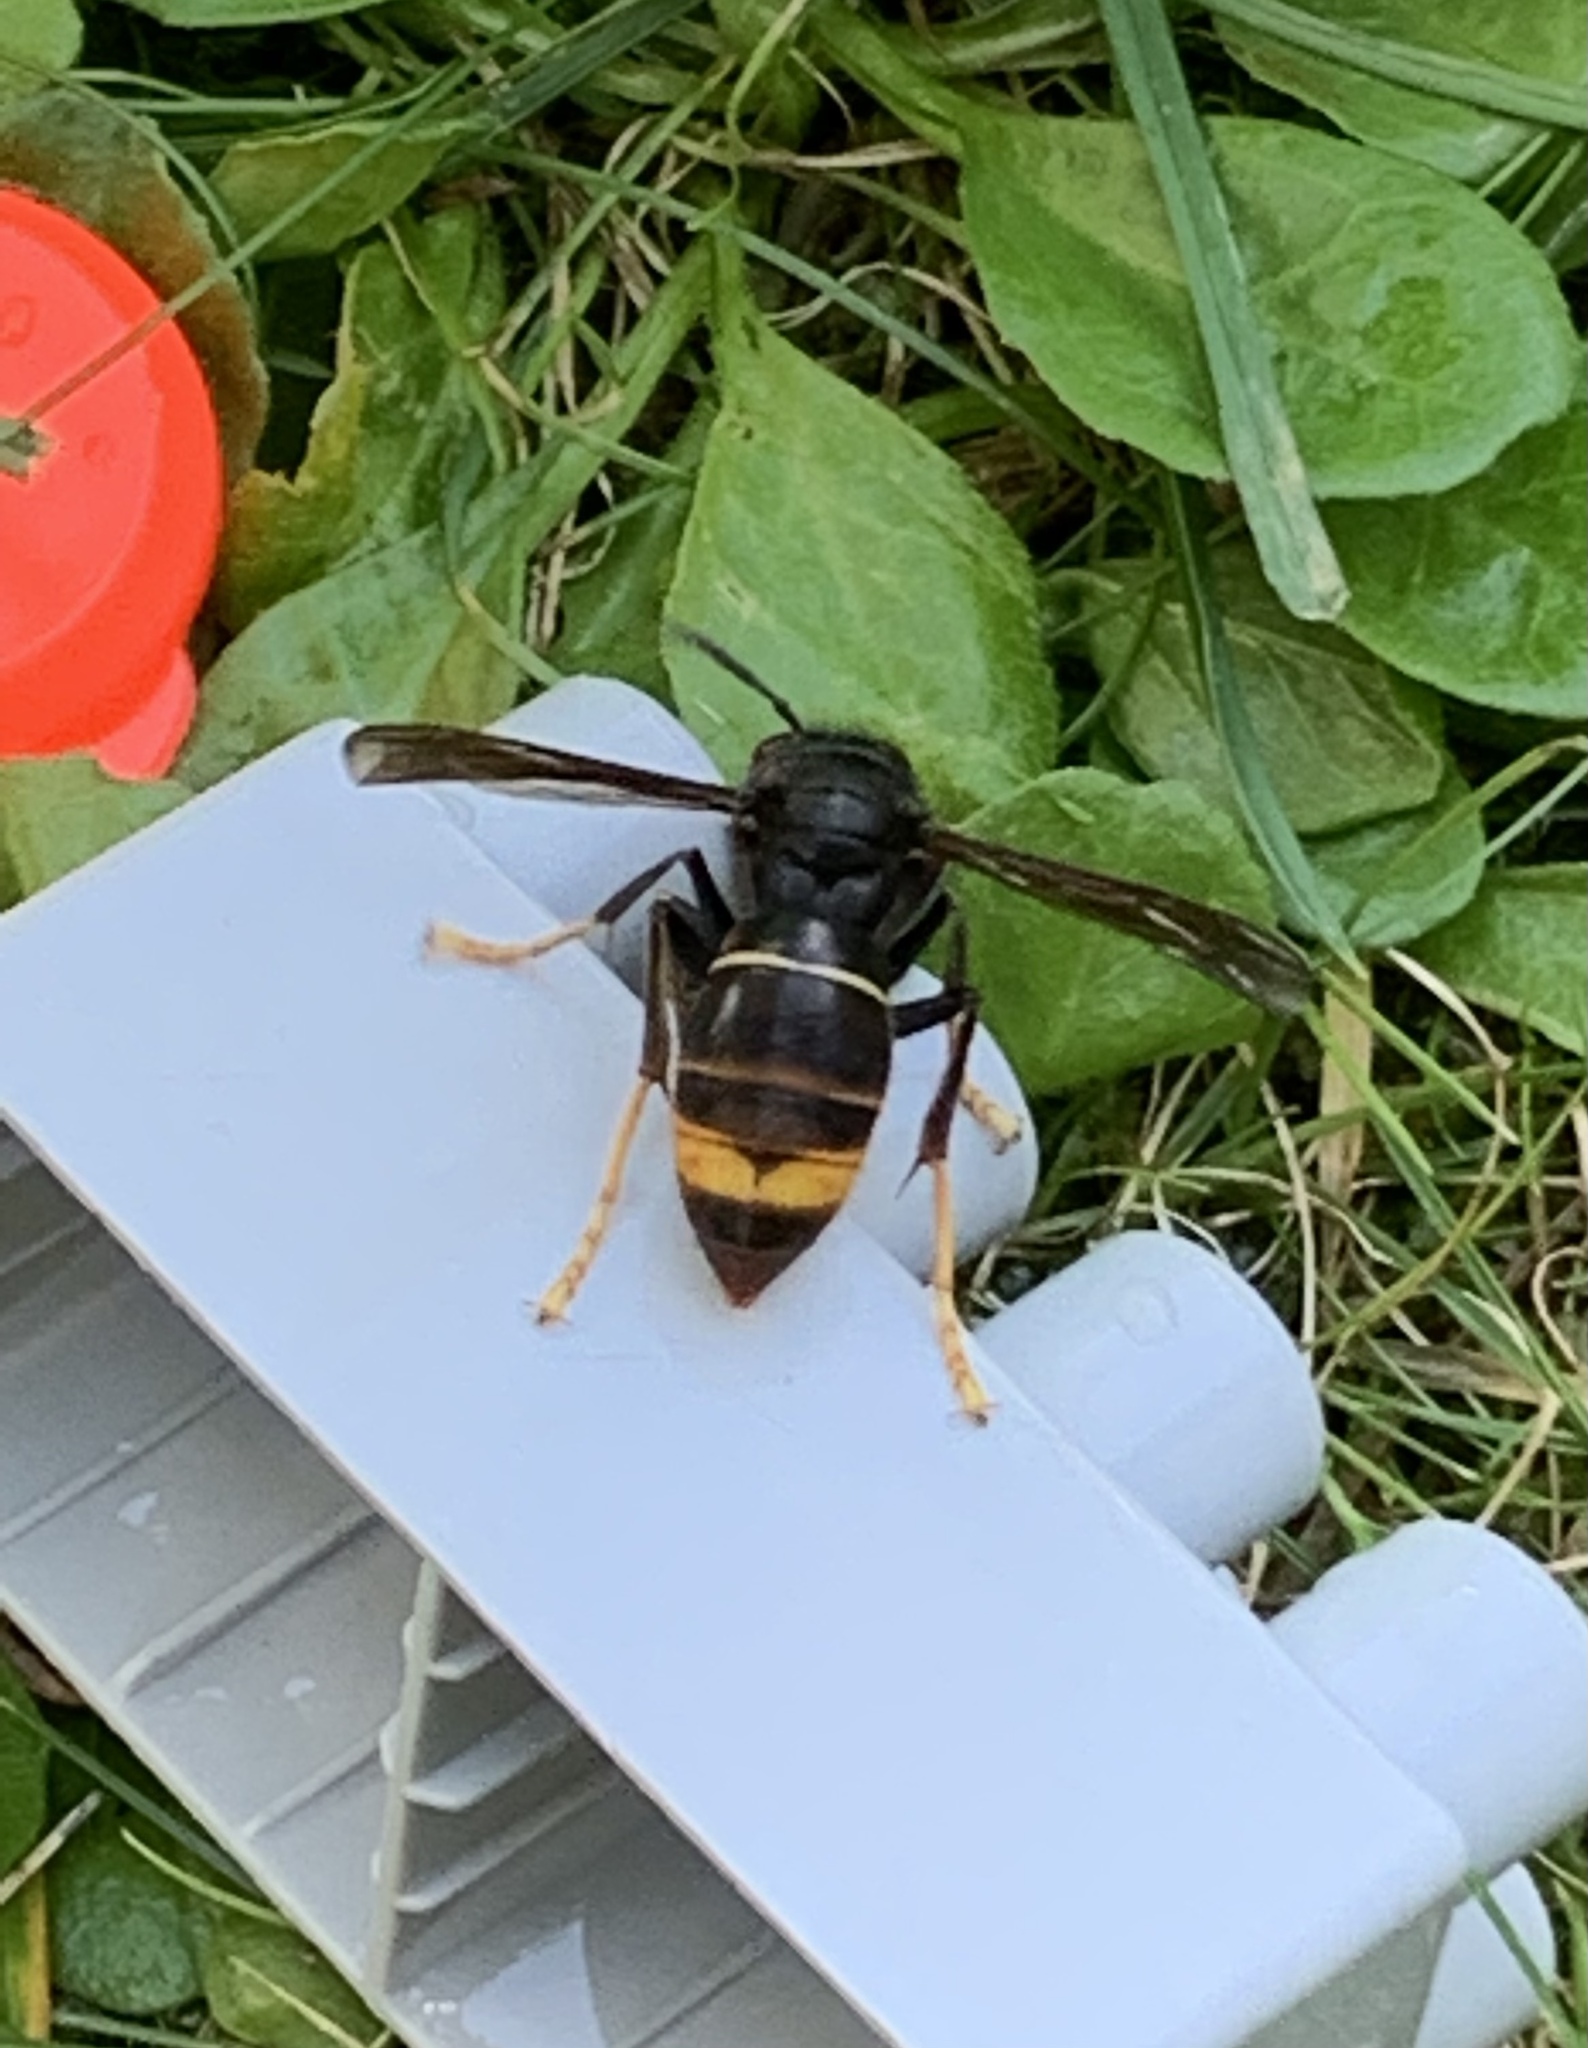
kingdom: Animalia
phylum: Arthropoda
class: Insecta
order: Hymenoptera
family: Vespidae
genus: Vespa
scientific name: Vespa velutina
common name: Asian hornet
